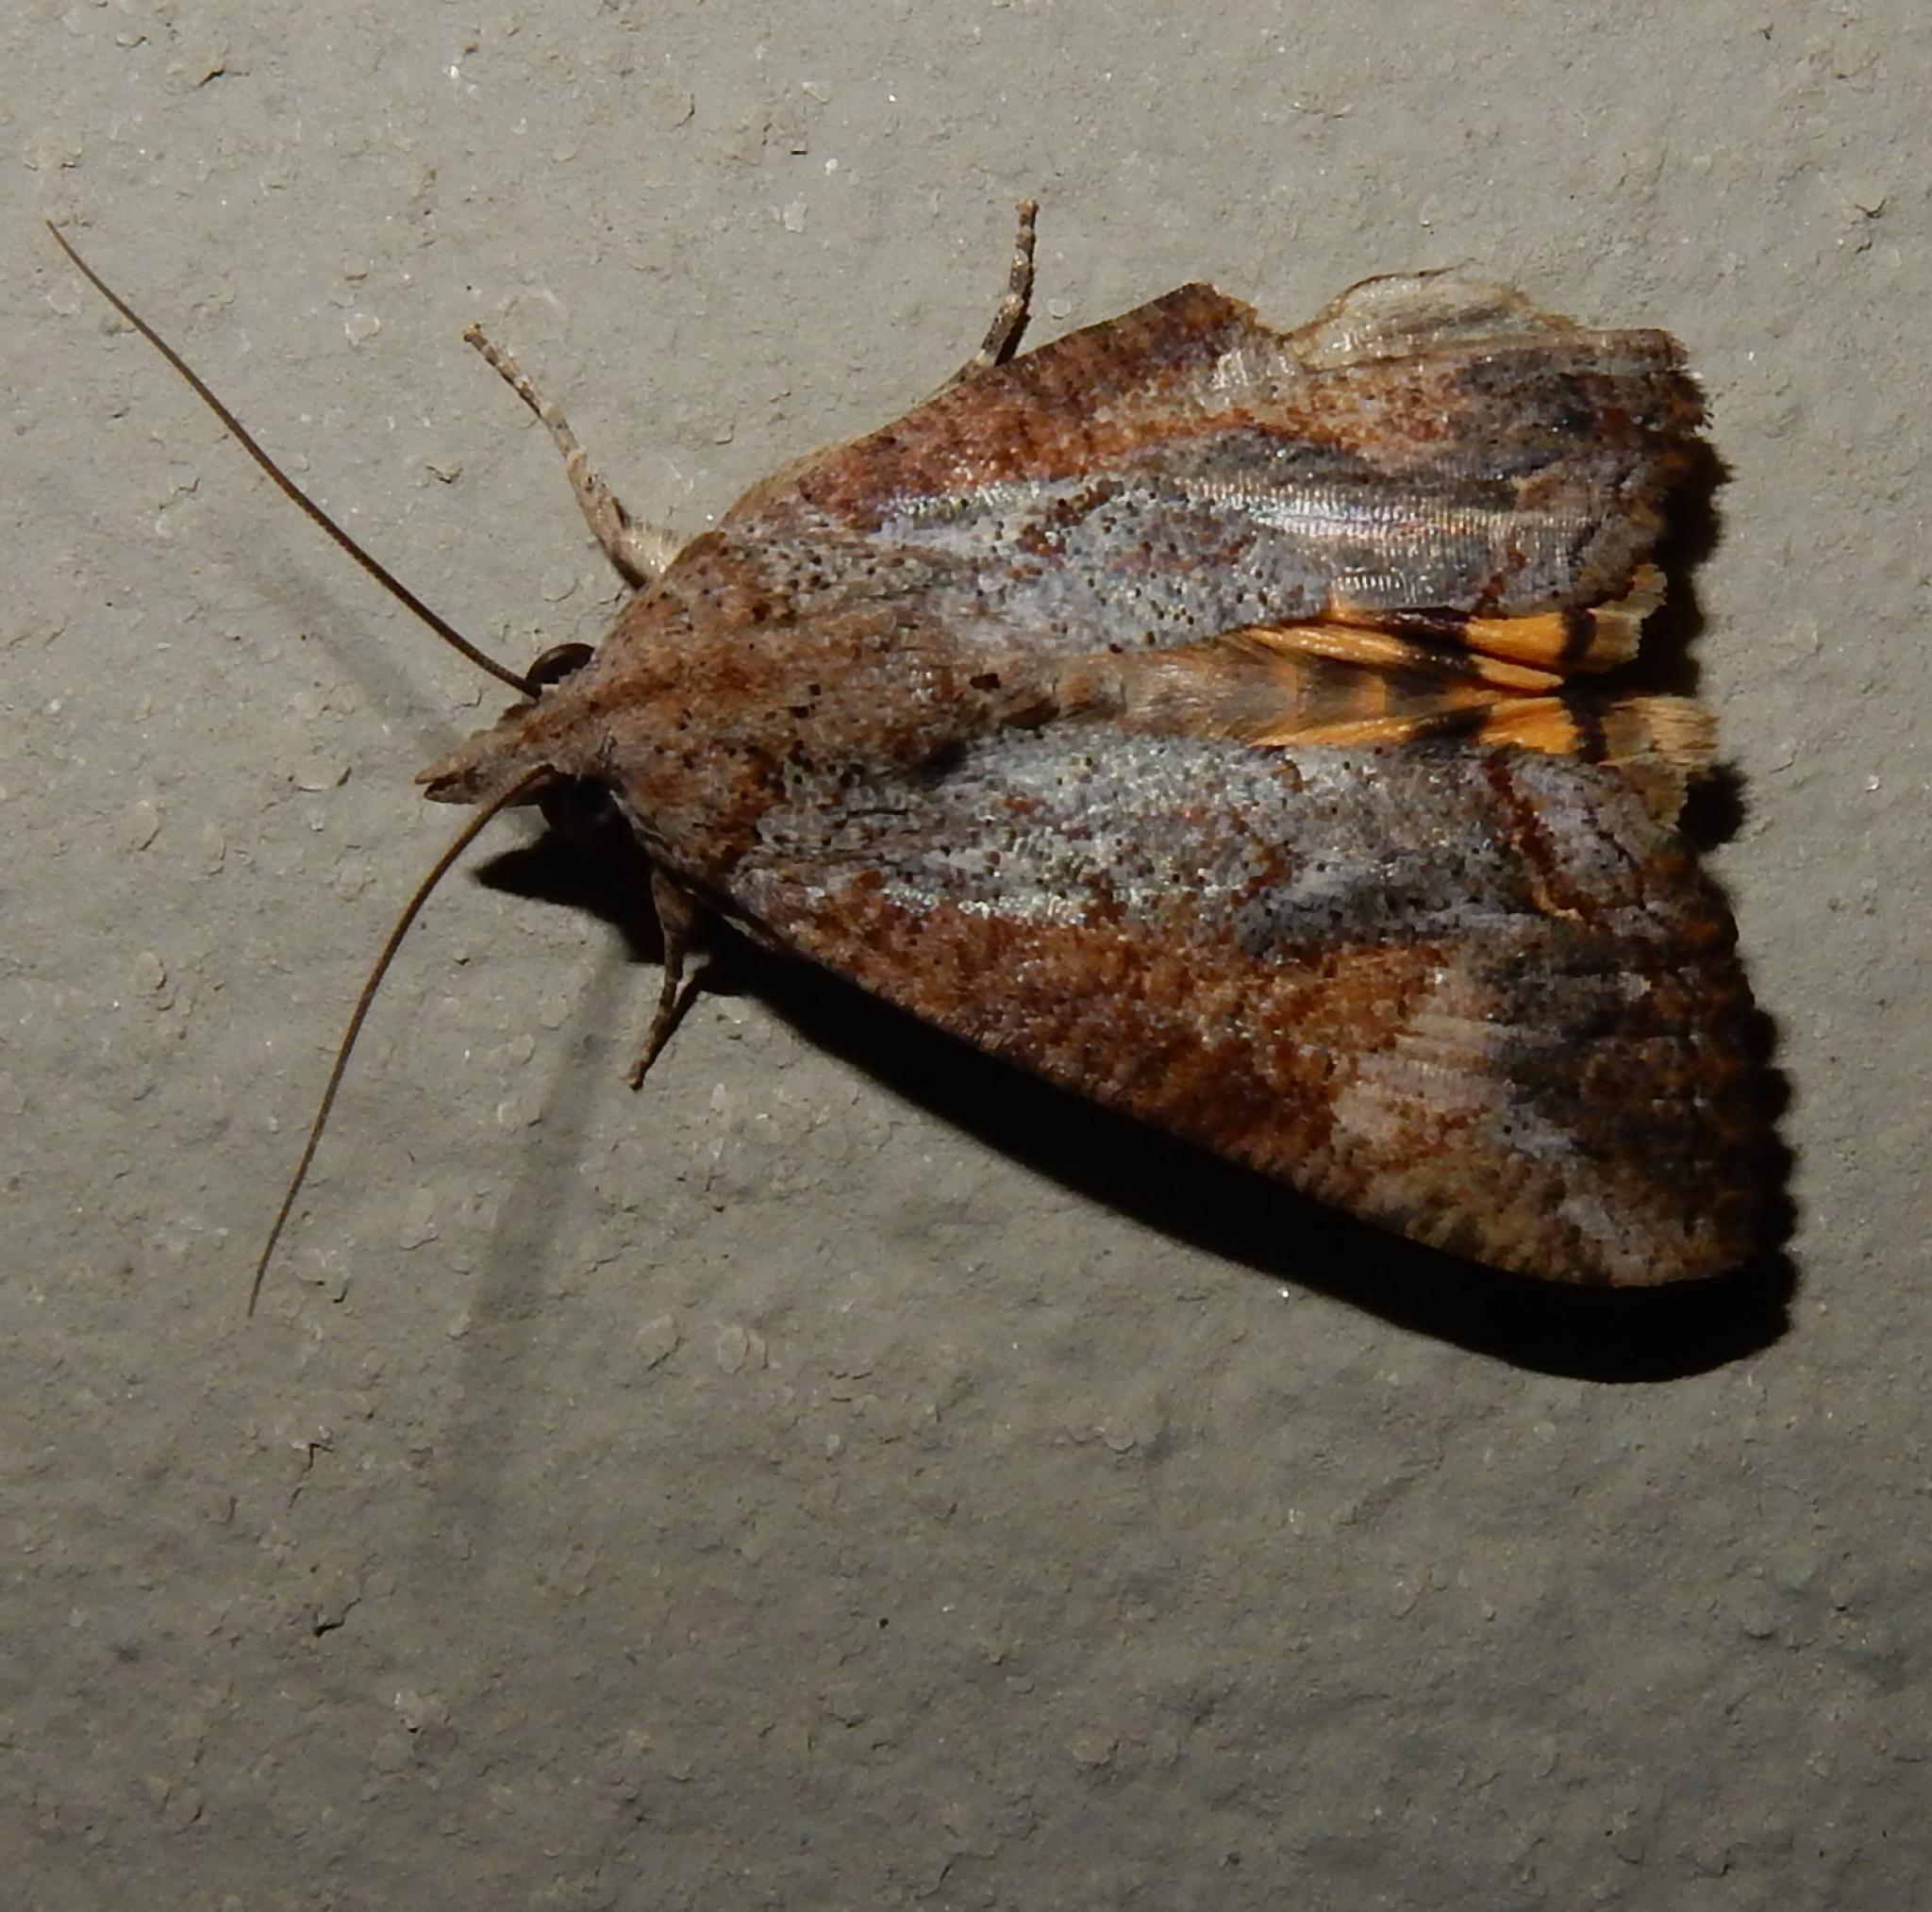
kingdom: Animalia
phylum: Arthropoda
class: Insecta
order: Lepidoptera
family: Erebidae
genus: Hypocala
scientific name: Hypocala rostrata
